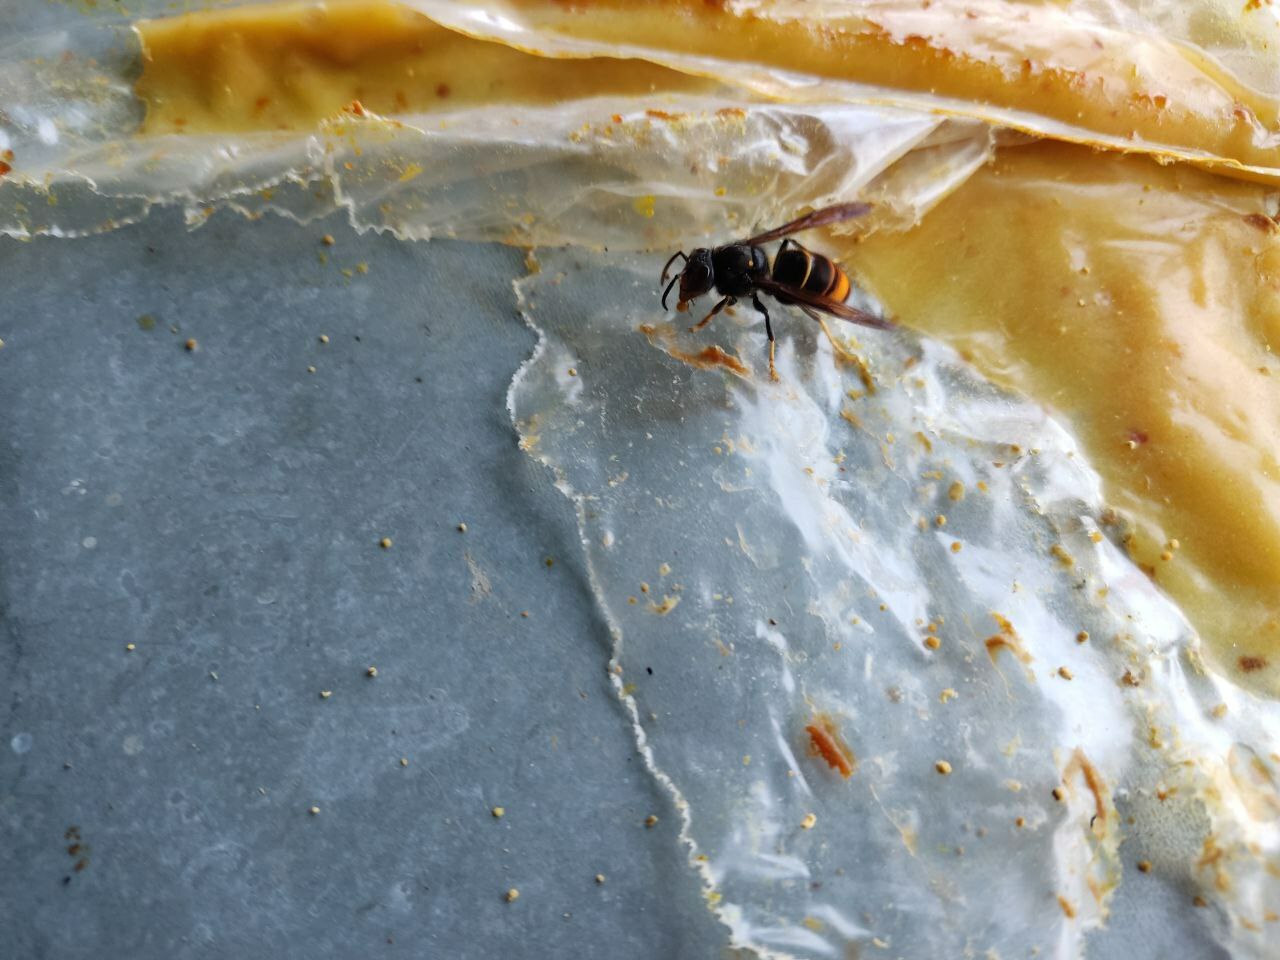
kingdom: Animalia
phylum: Arthropoda
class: Insecta
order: Hymenoptera
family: Vespidae
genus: Vespa
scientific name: Vespa velutina
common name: Asian hornet
